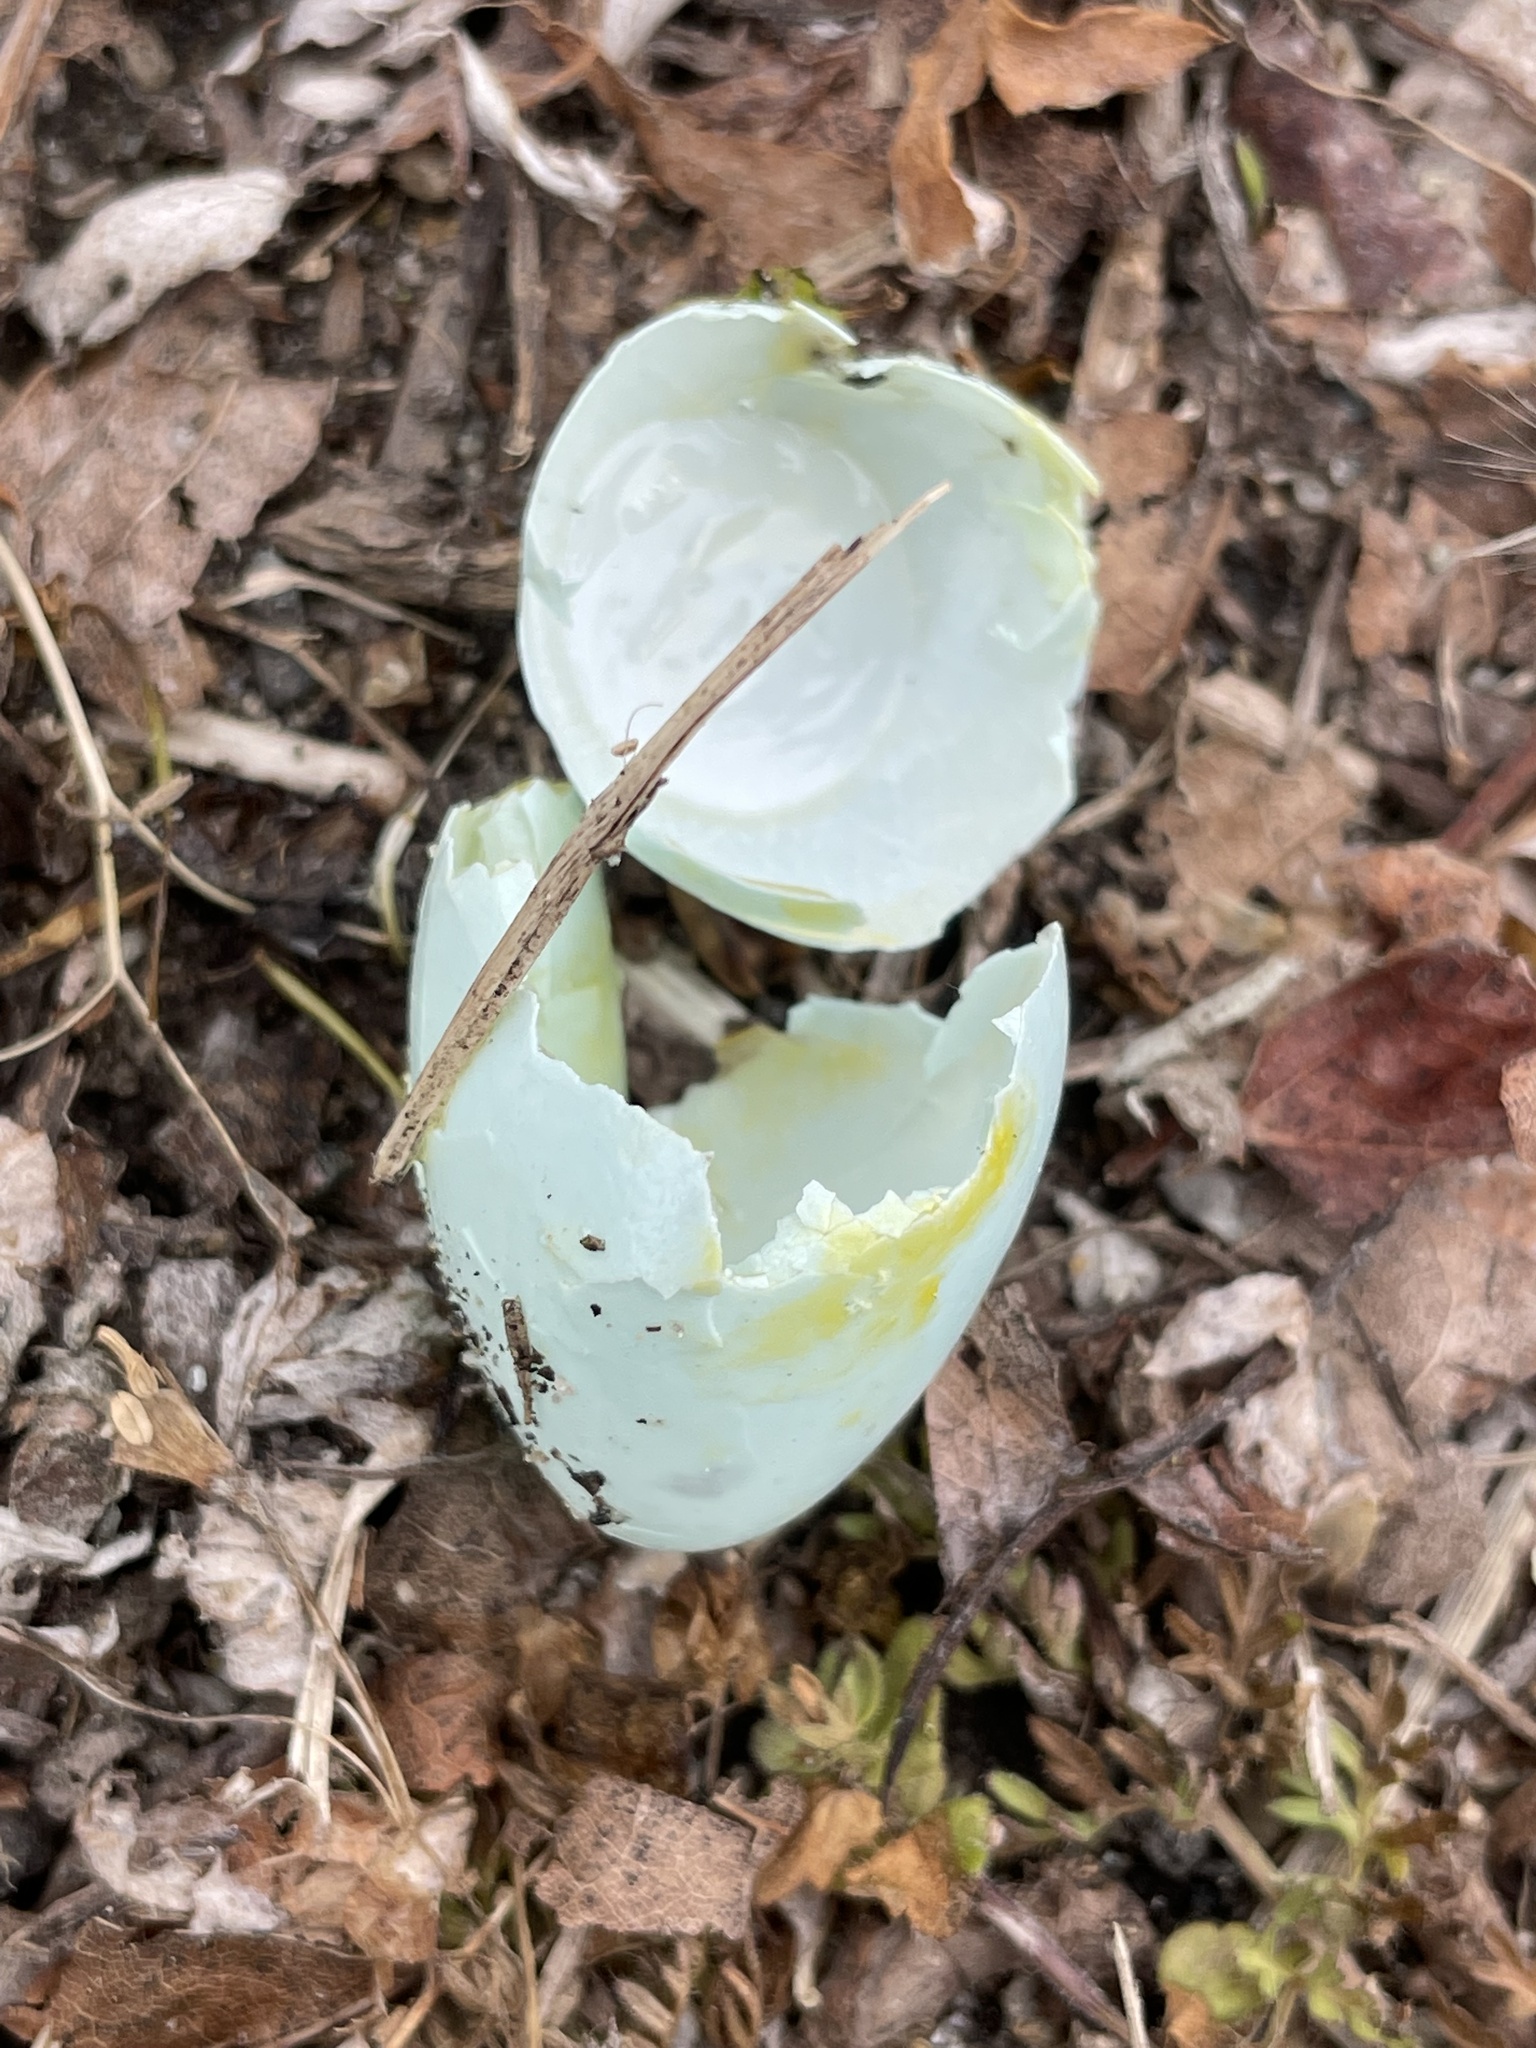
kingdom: Animalia
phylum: Chordata
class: Aves
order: Passeriformes
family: Turdidae
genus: Turdus
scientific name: Turdus migratorius
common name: American robin
